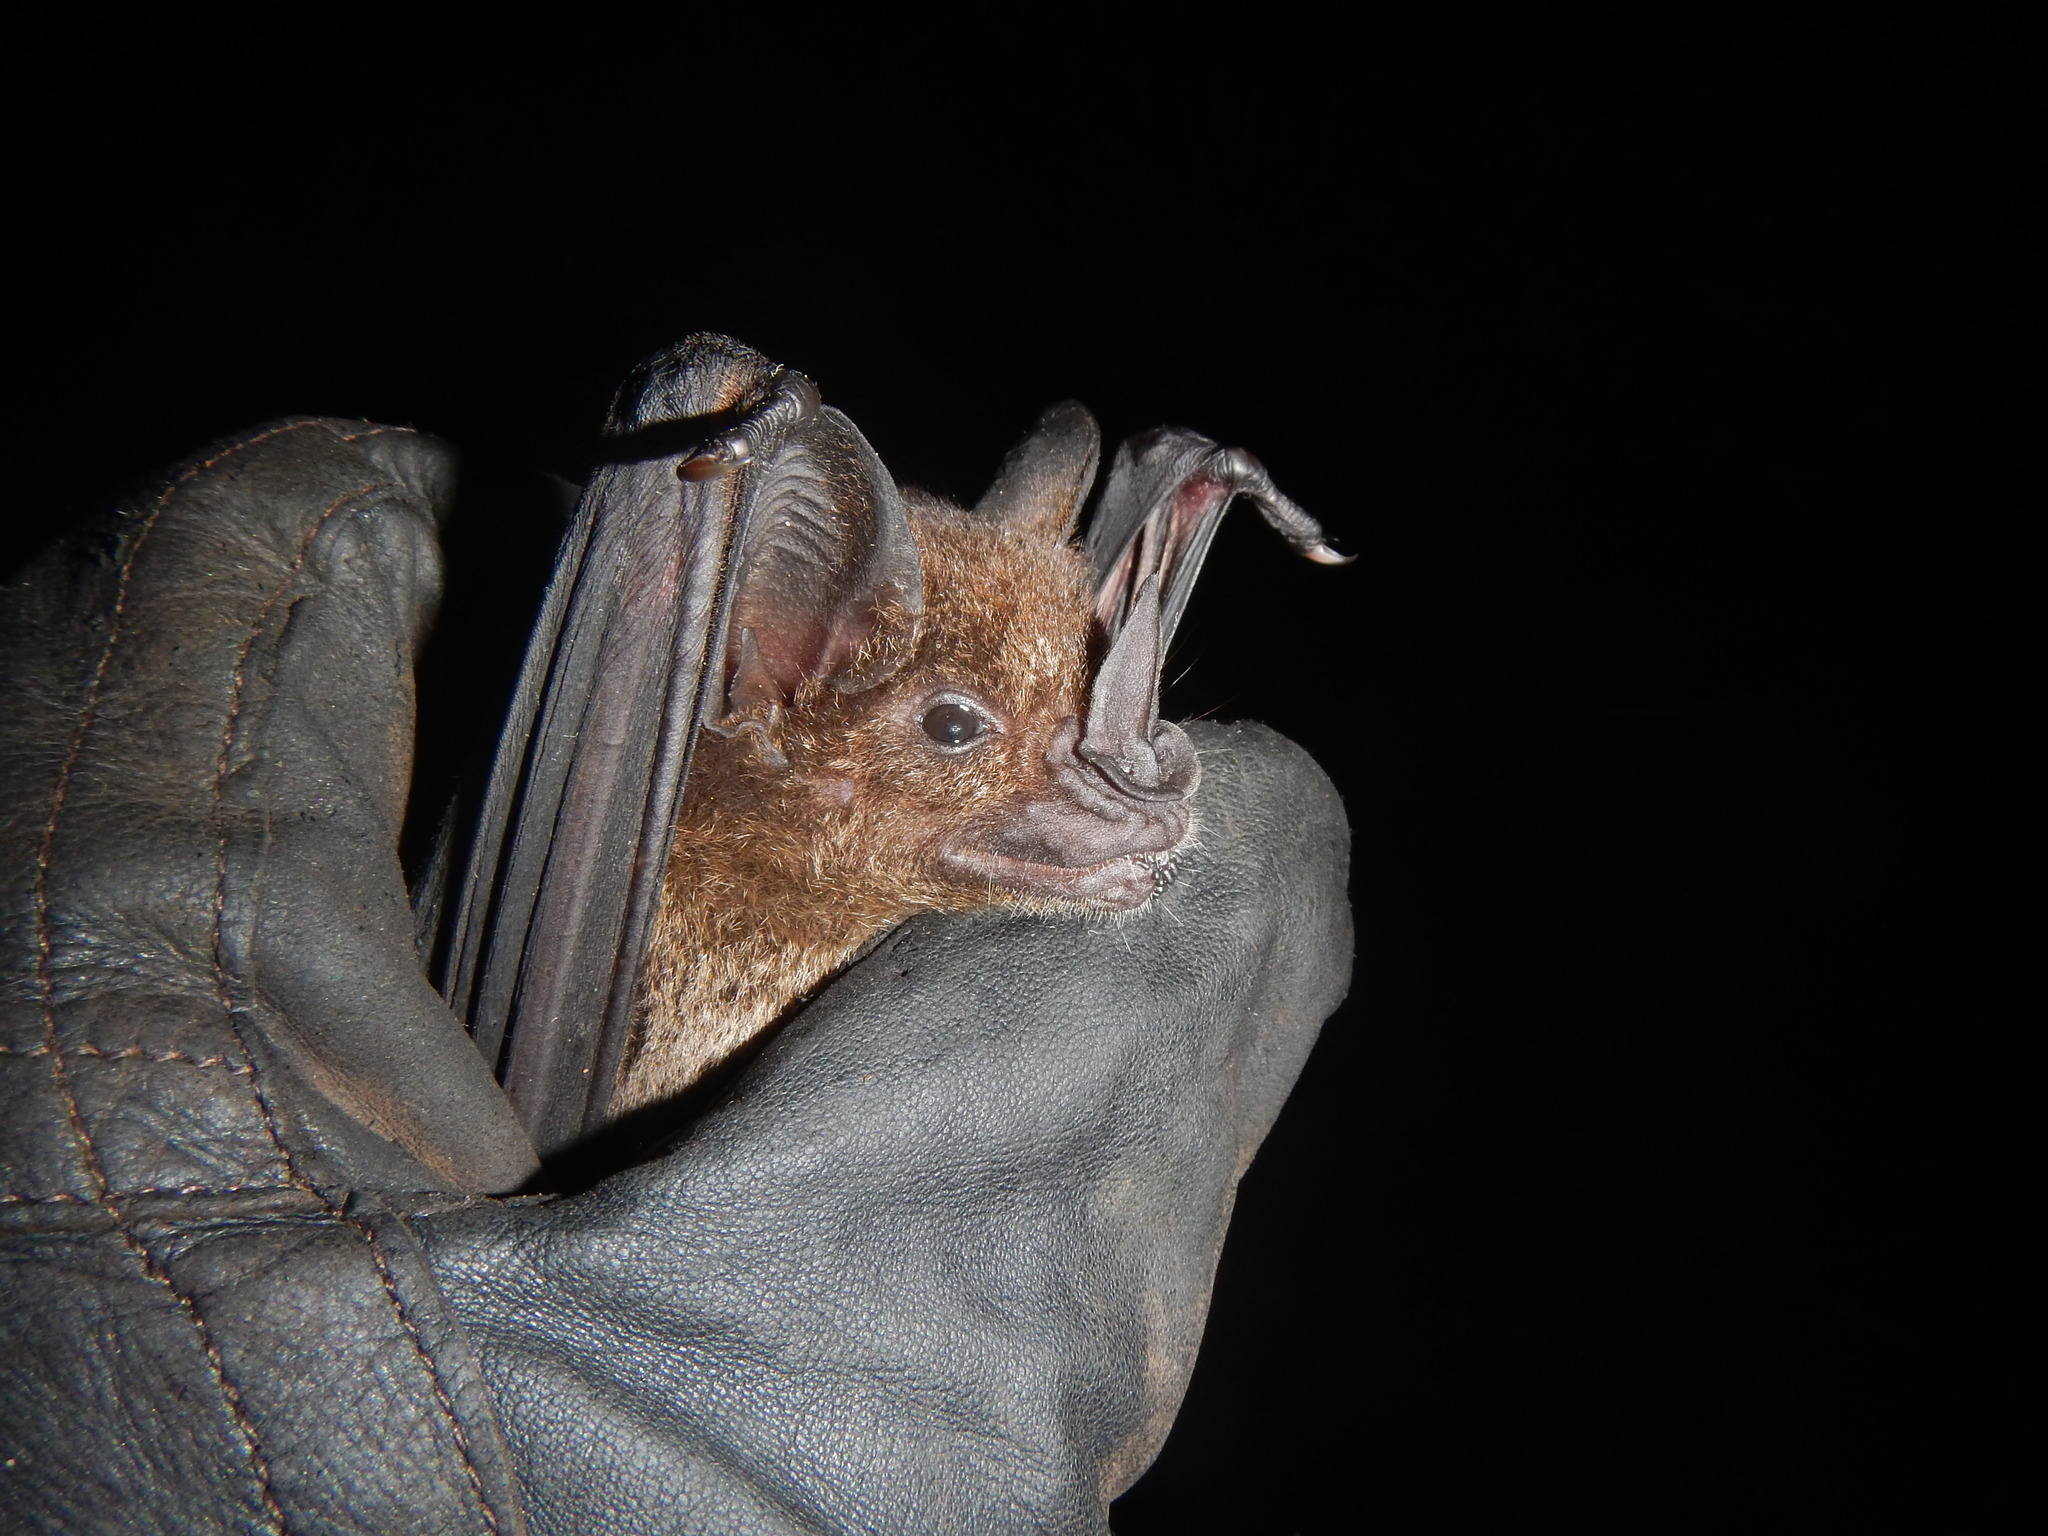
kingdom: Animalia
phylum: Chordata
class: Mammalia
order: Chiroptera
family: Phyllostomidae
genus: Phyllostomus
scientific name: Phyllostomus hastatus
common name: Greater spear-nosed bat
